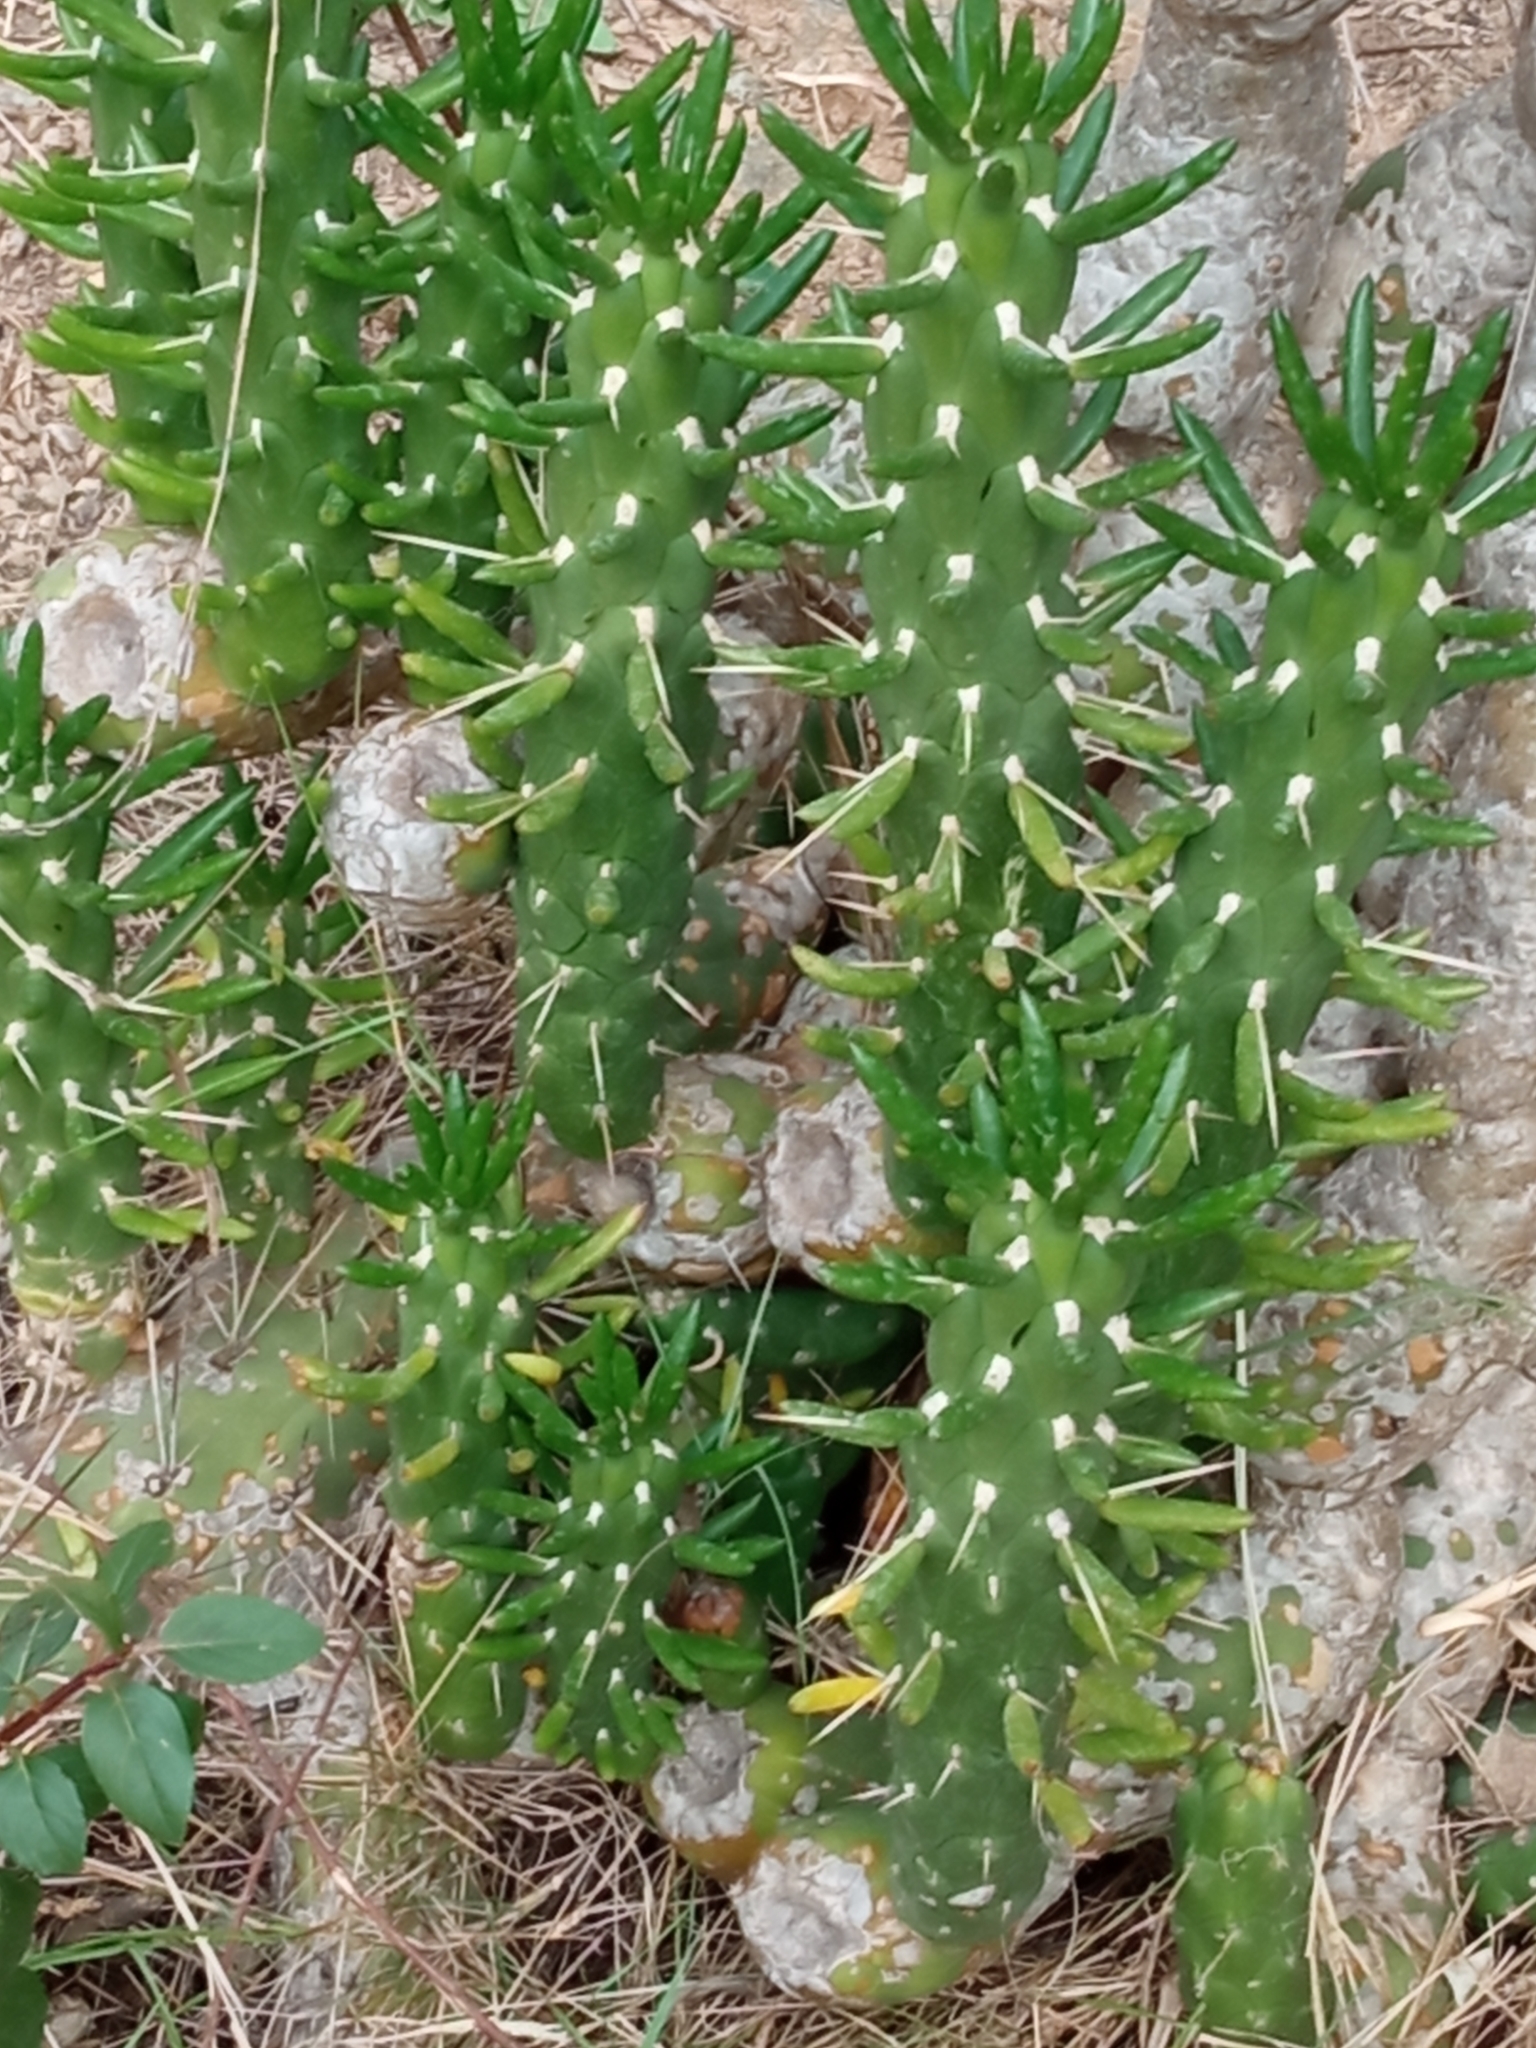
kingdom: Plantae
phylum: Tracheophyta
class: Magnoliopsida
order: Caryophyllales
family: Cactaceae
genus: Austrocylindropuntia
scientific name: Austrocylindropuntia subulata
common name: Eve's needle cactus
